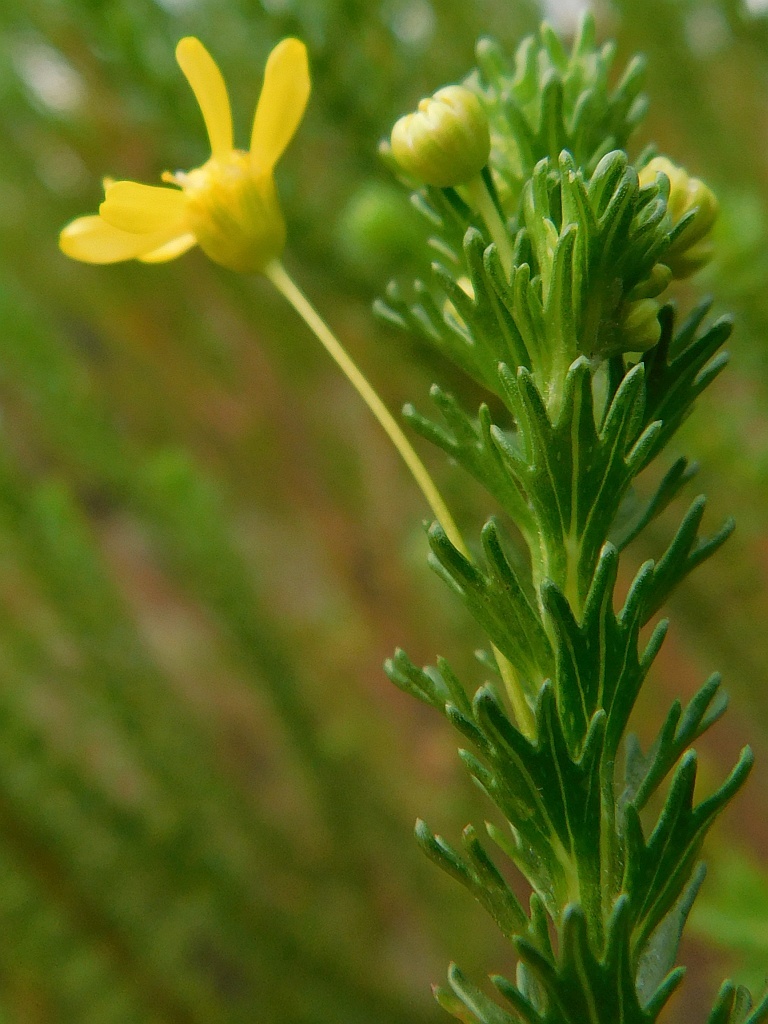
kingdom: Plantae
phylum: Tracheophyta
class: Magnoliopsida
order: Asterales
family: Asteraceae
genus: Euryops
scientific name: Euryops virgineus
